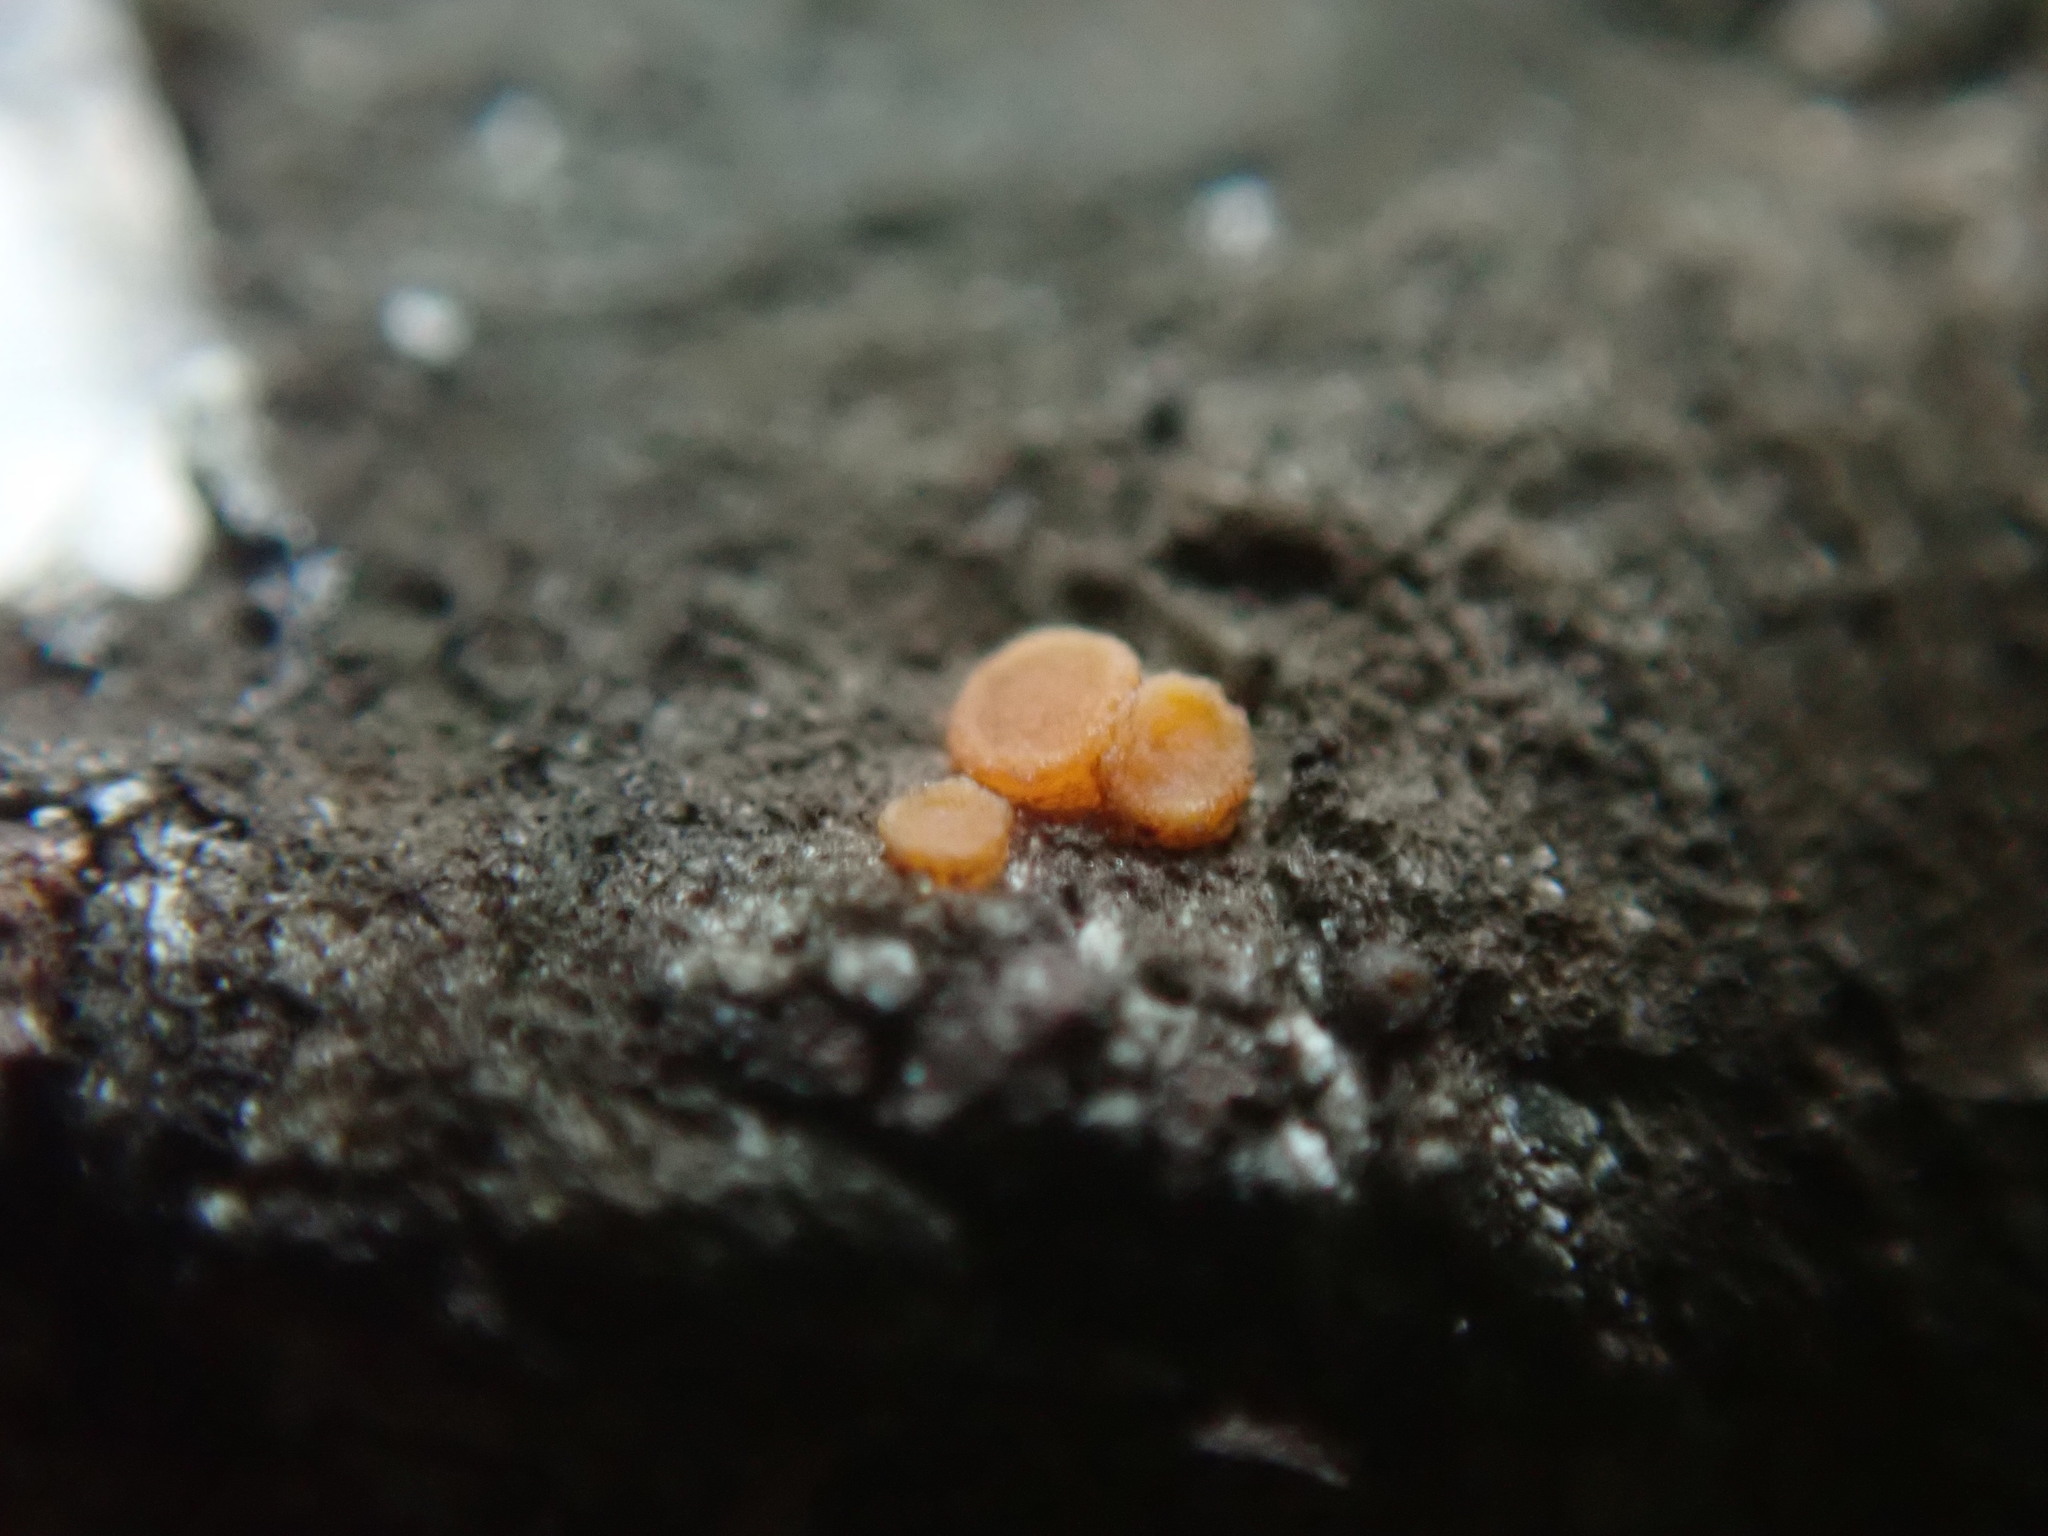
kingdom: Fungi
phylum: Ascomycota
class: Sareomycetes
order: Sareales
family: Sareaceae
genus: Sarea
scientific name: Sarea resinae
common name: Sarea lichen
